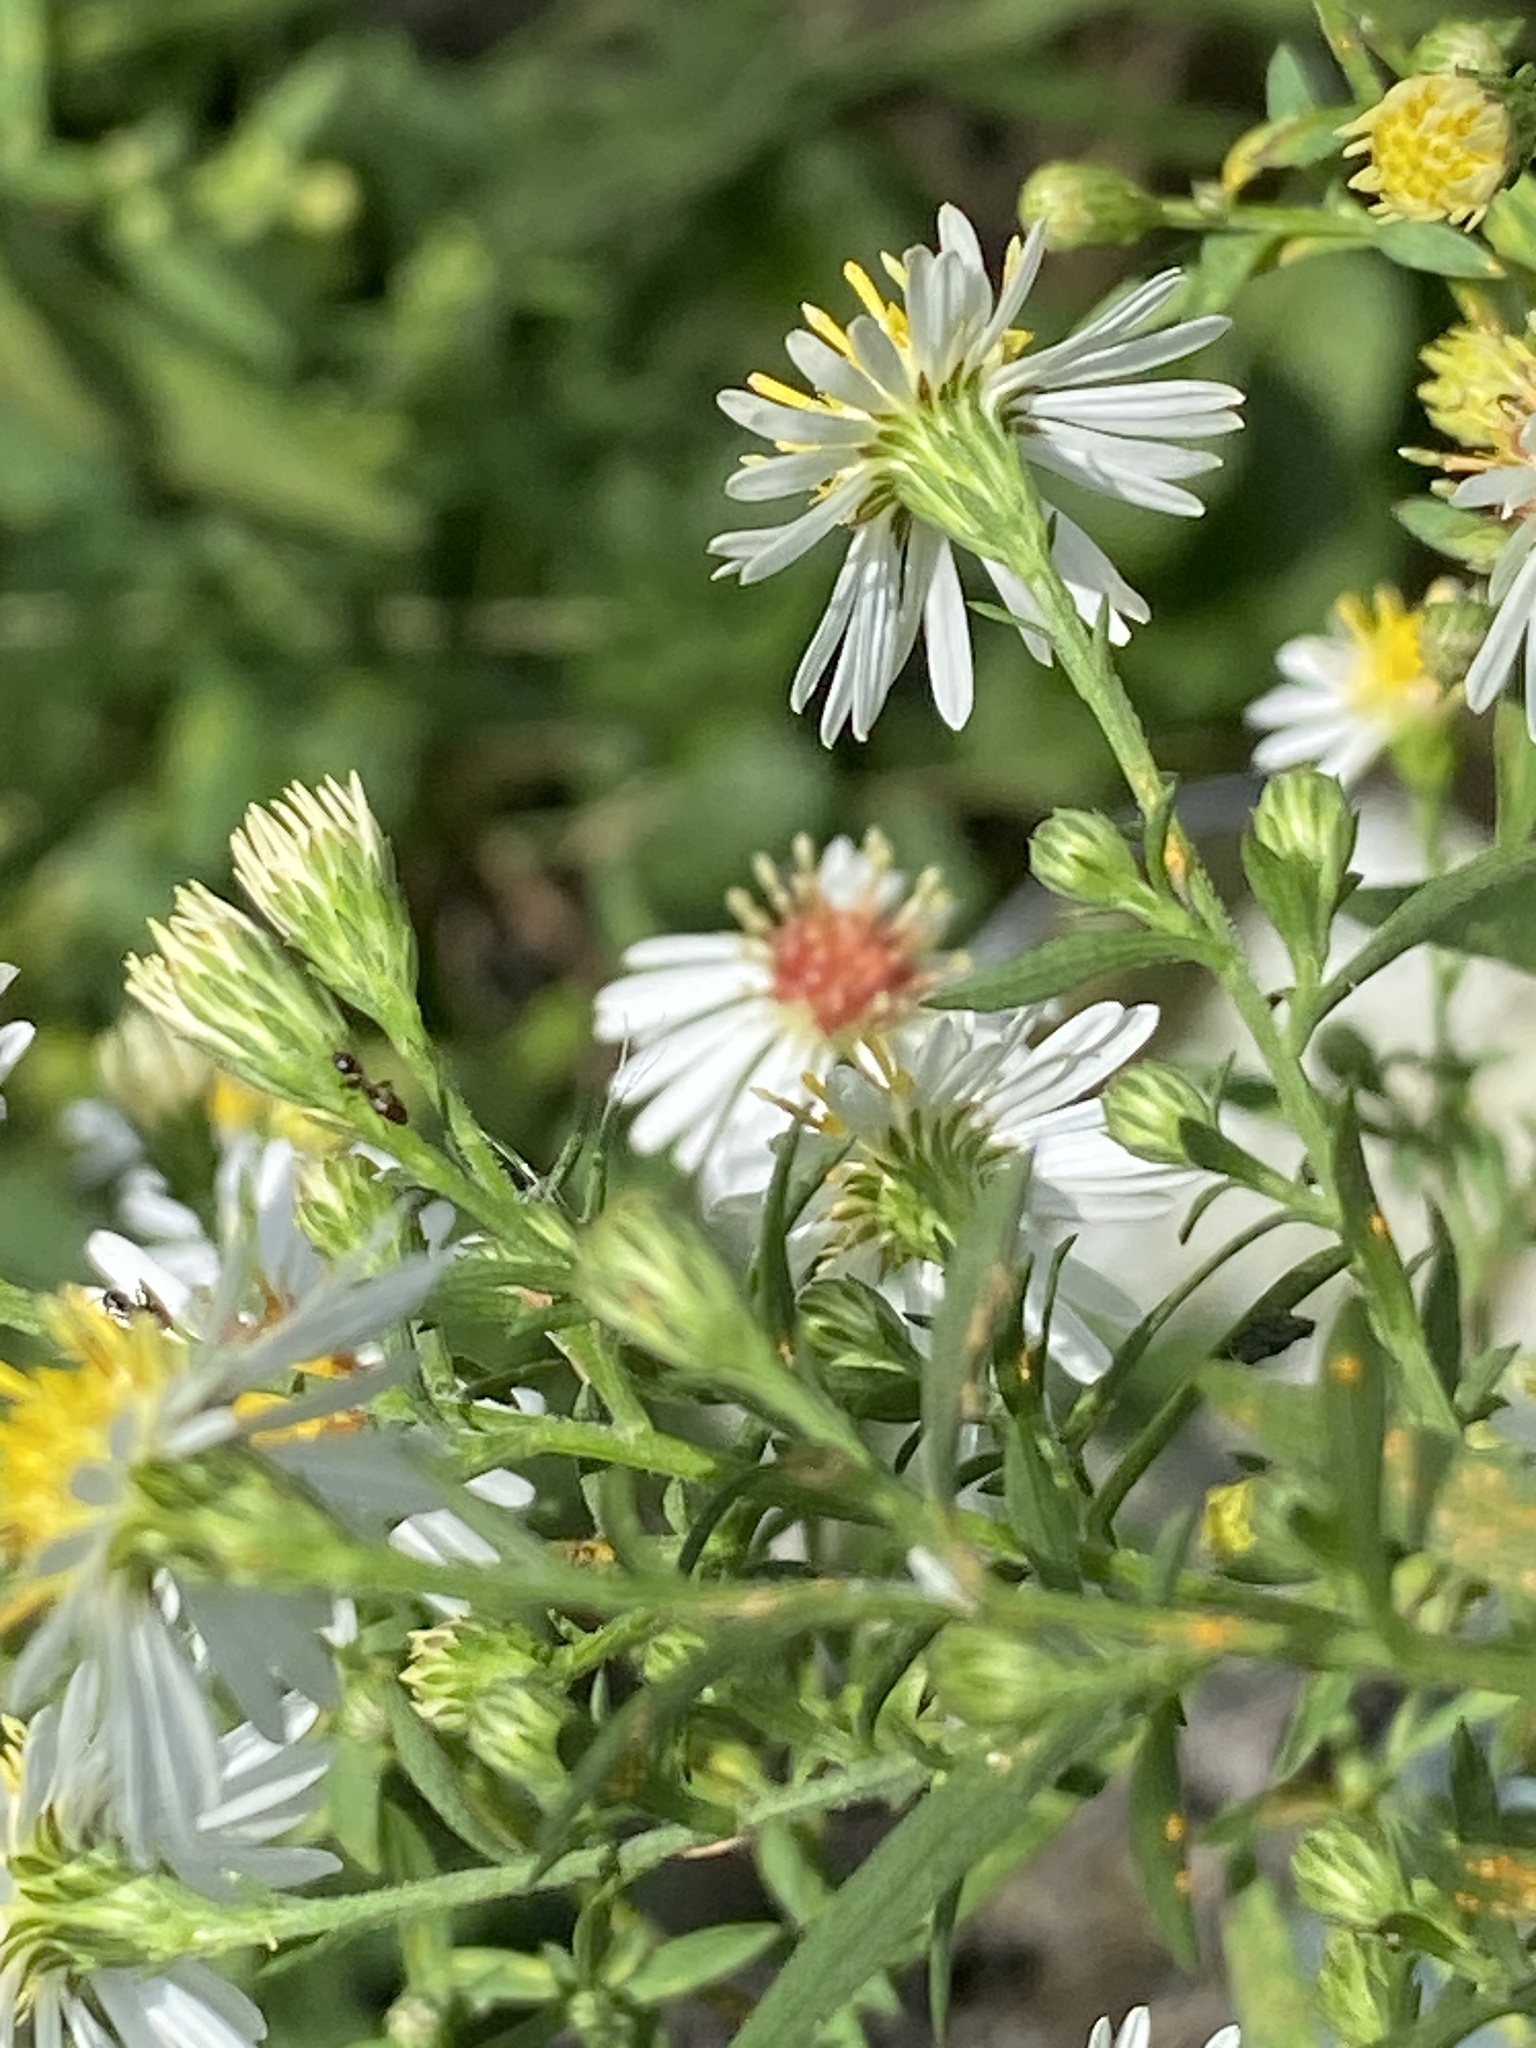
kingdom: Plantae
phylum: Tracheophyta
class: Magnoliopsida
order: Asterales
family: Asteraceae
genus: Symphyotrichum
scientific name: Symphyotrichum lanceolatum
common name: Panicled aster
